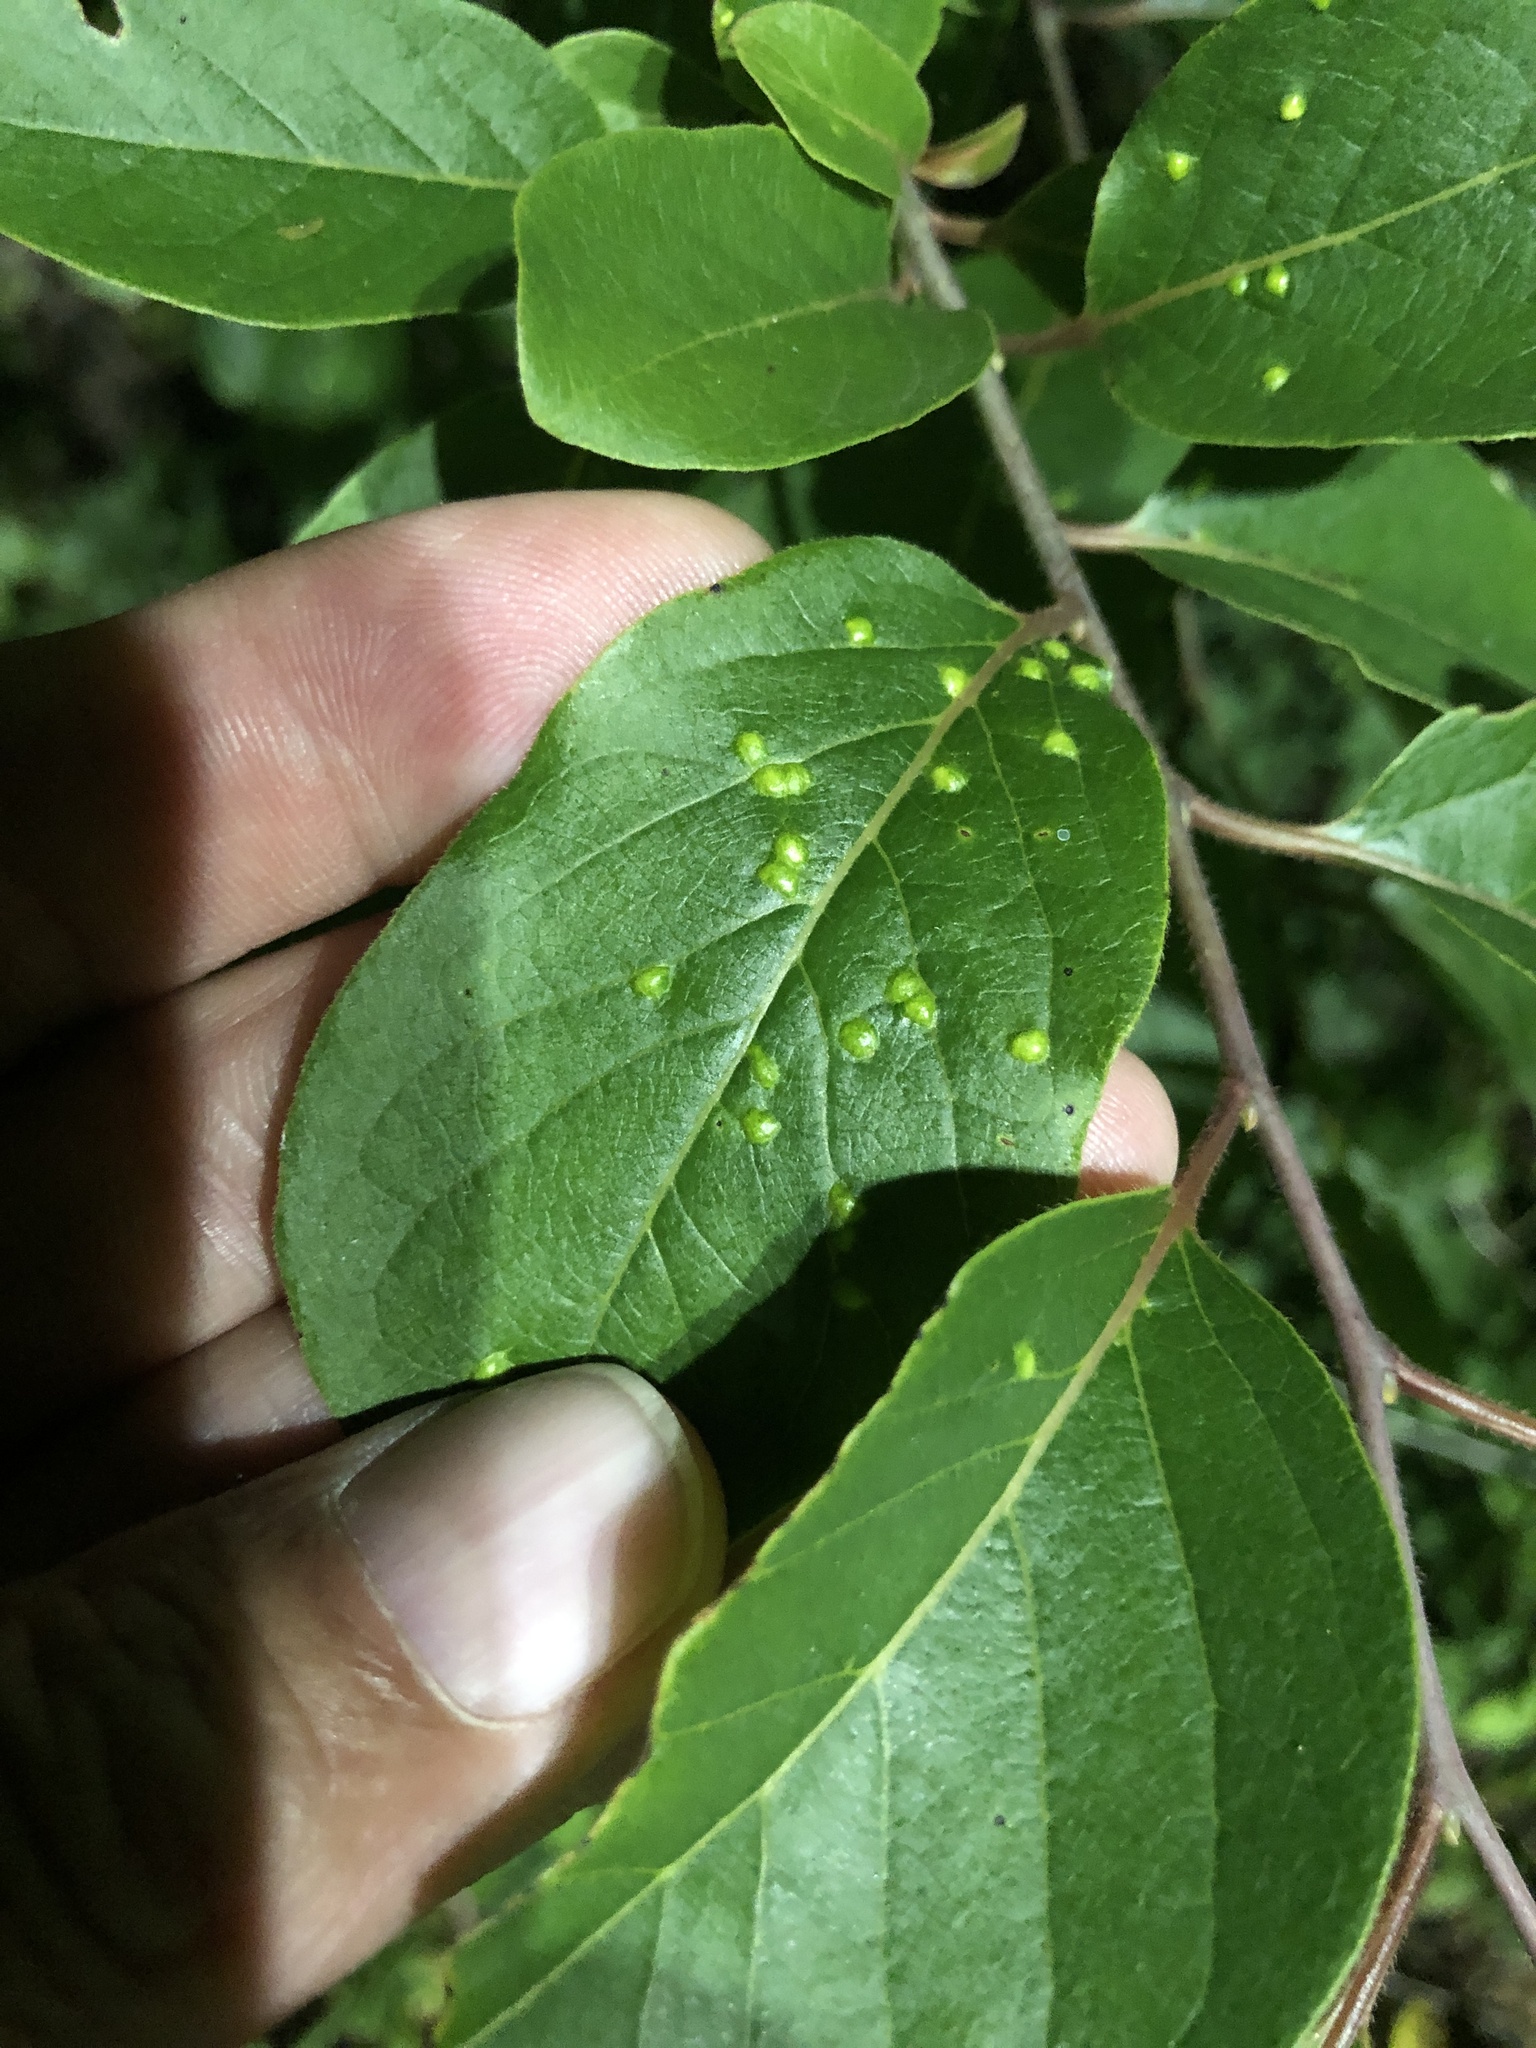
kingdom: Animalia
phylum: Arthropoda
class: Arachnida
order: Trombidiformes
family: Eriophyidae
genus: Aceria
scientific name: Aceria
